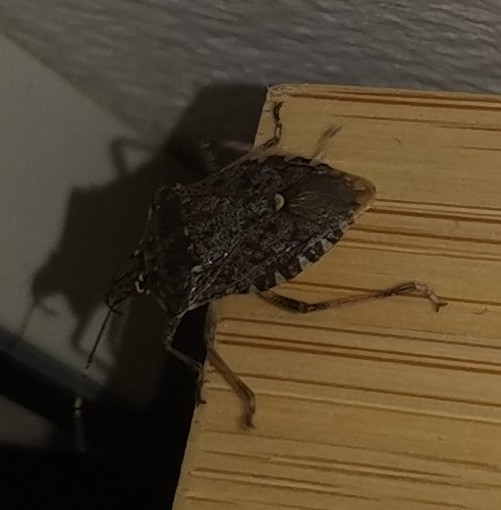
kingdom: Animalia
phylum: Arthropoda
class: Insecta
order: Hemiptera
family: Pentatomidae
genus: Halyomorpha
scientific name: Halyomorpha halys
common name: Brown marmorated stink bug
